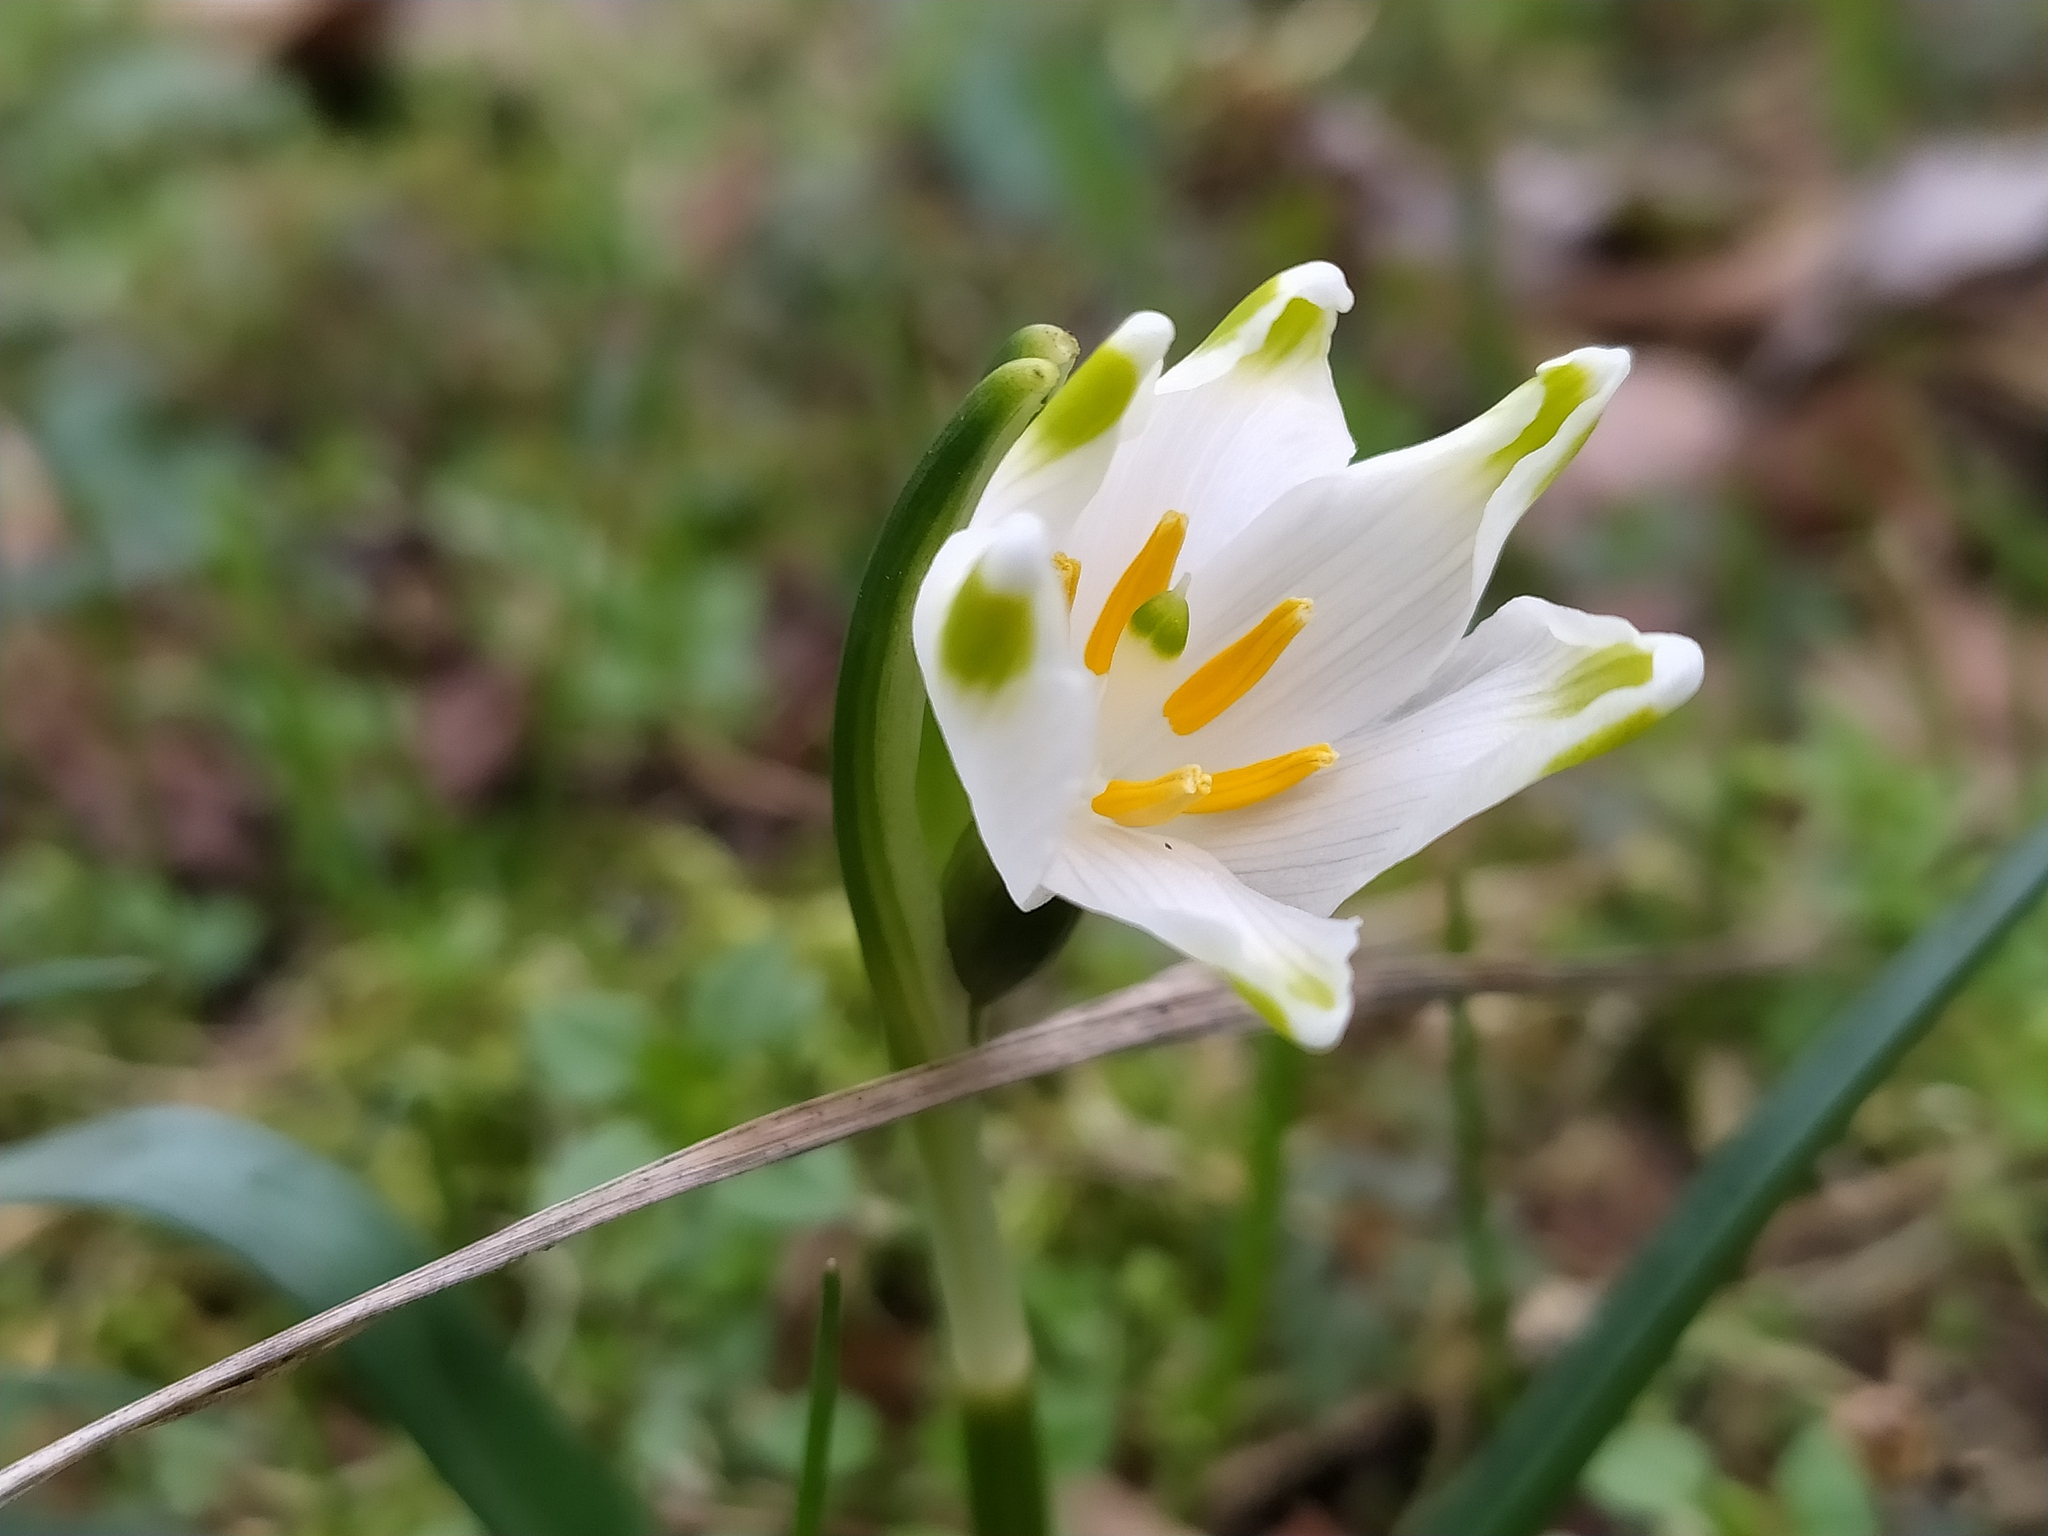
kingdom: Plantae
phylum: Tracheophyta
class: Liliopsida
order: Asparagales
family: Amaryllidaceae
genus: Leucojum
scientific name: Leucojum vernum
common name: Spring snowflake
